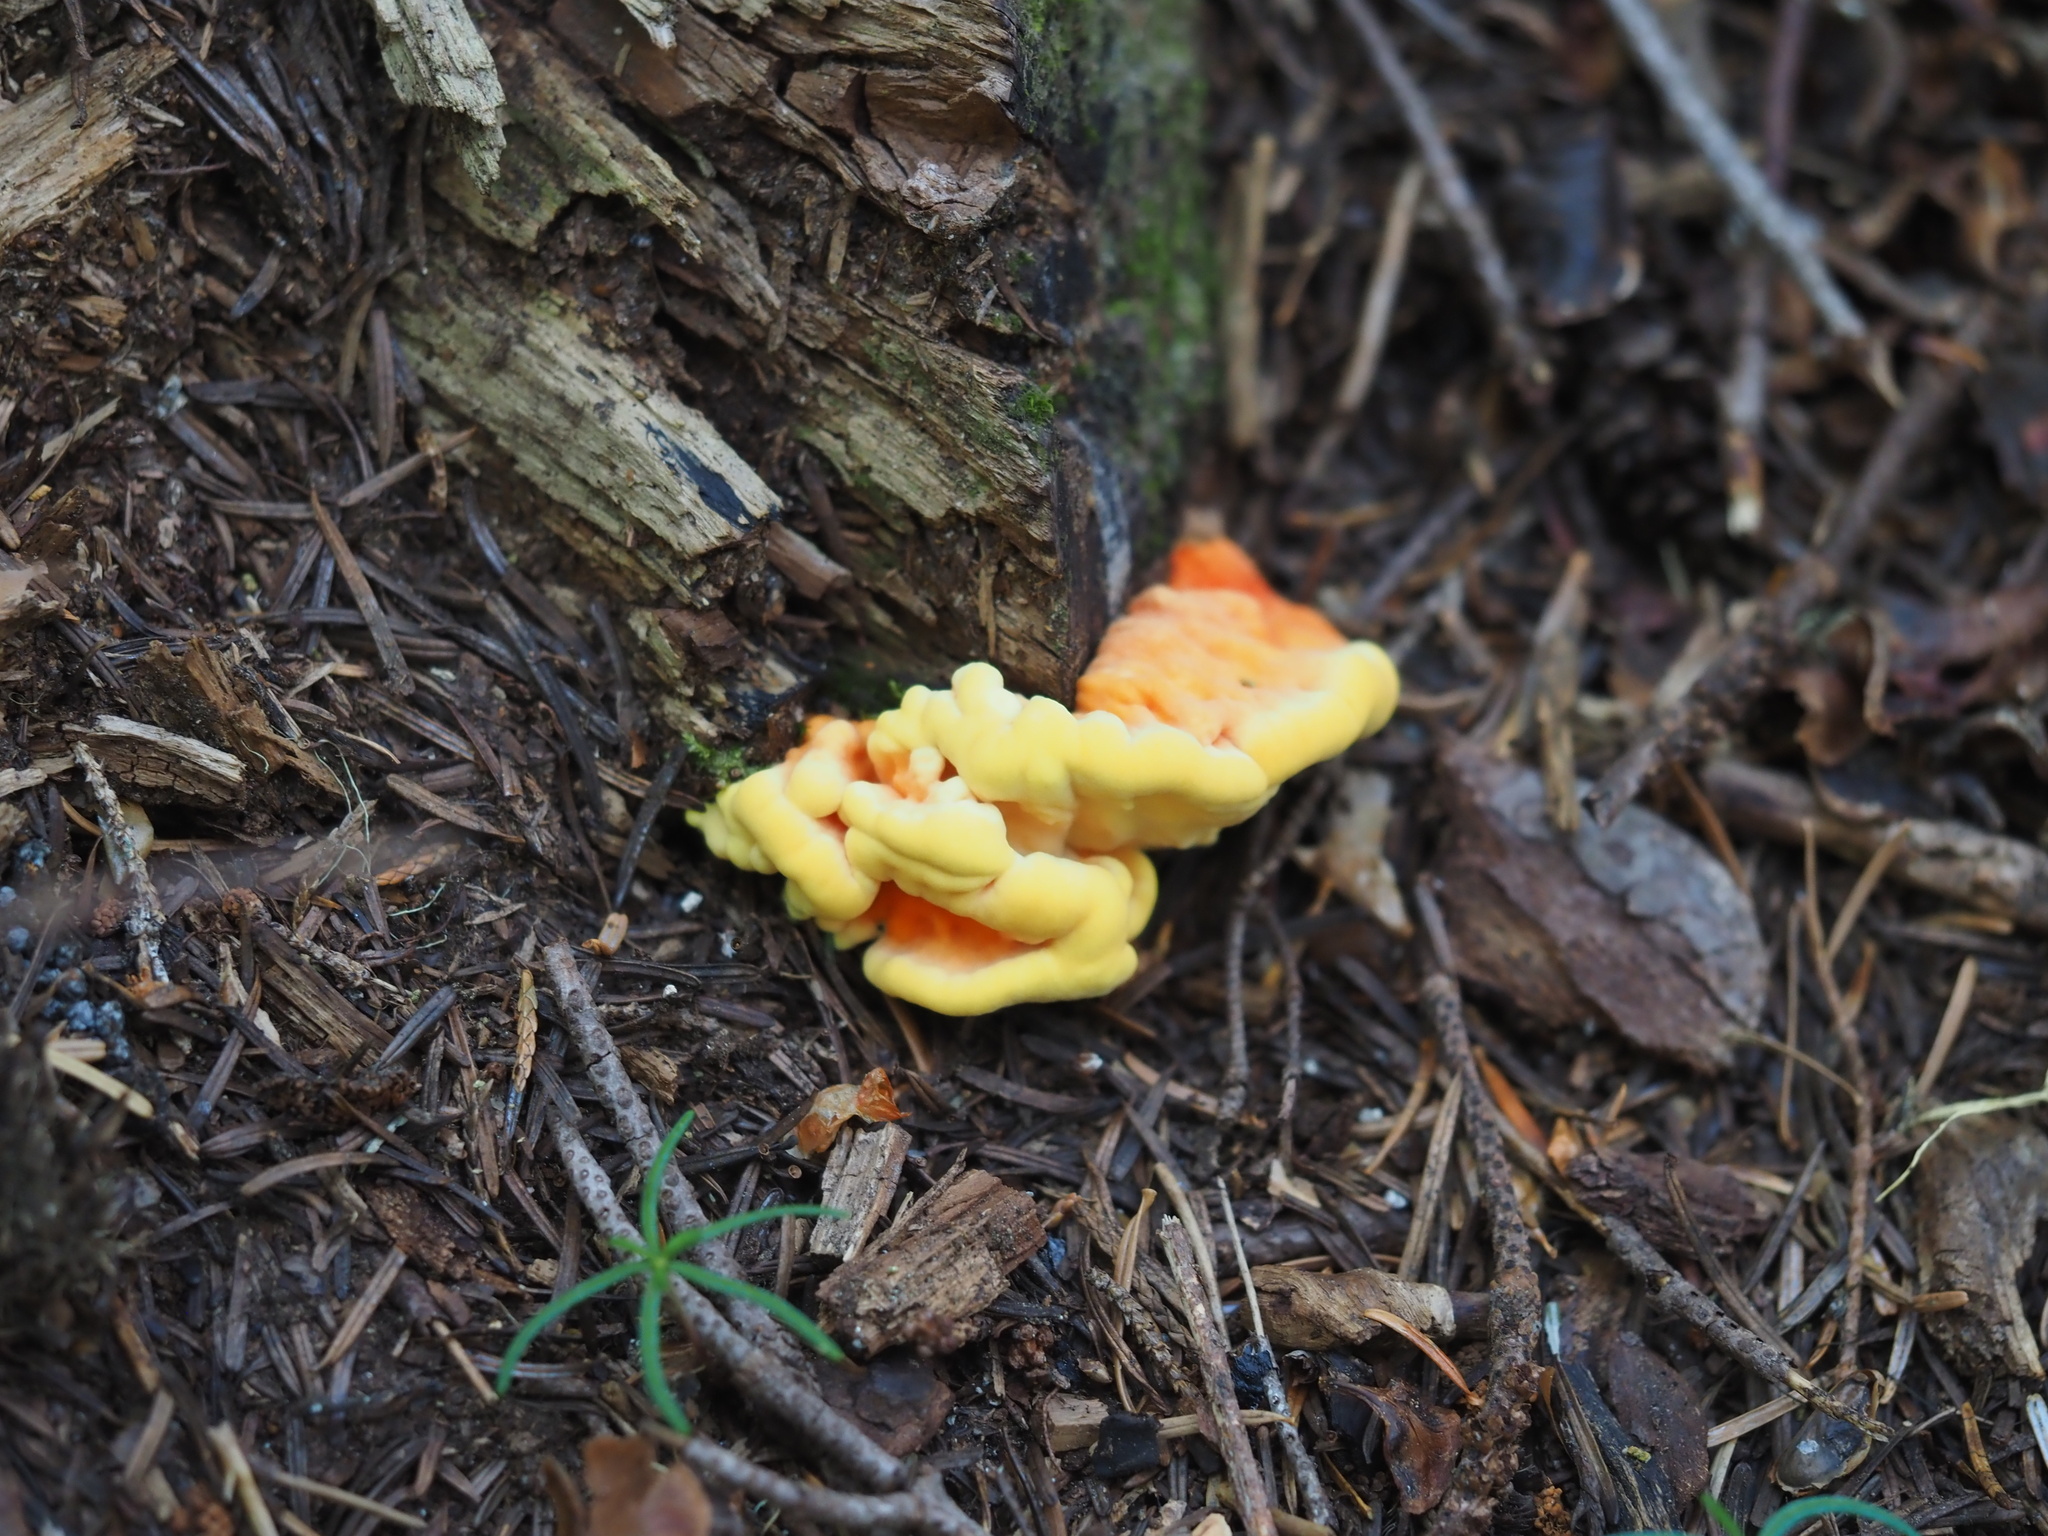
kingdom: Fungi
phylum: Basidiomycota
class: Agaricomycetes
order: Polyporales
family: Laetiporaceae
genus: Laetiporus
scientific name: Laetiporus conifericola
